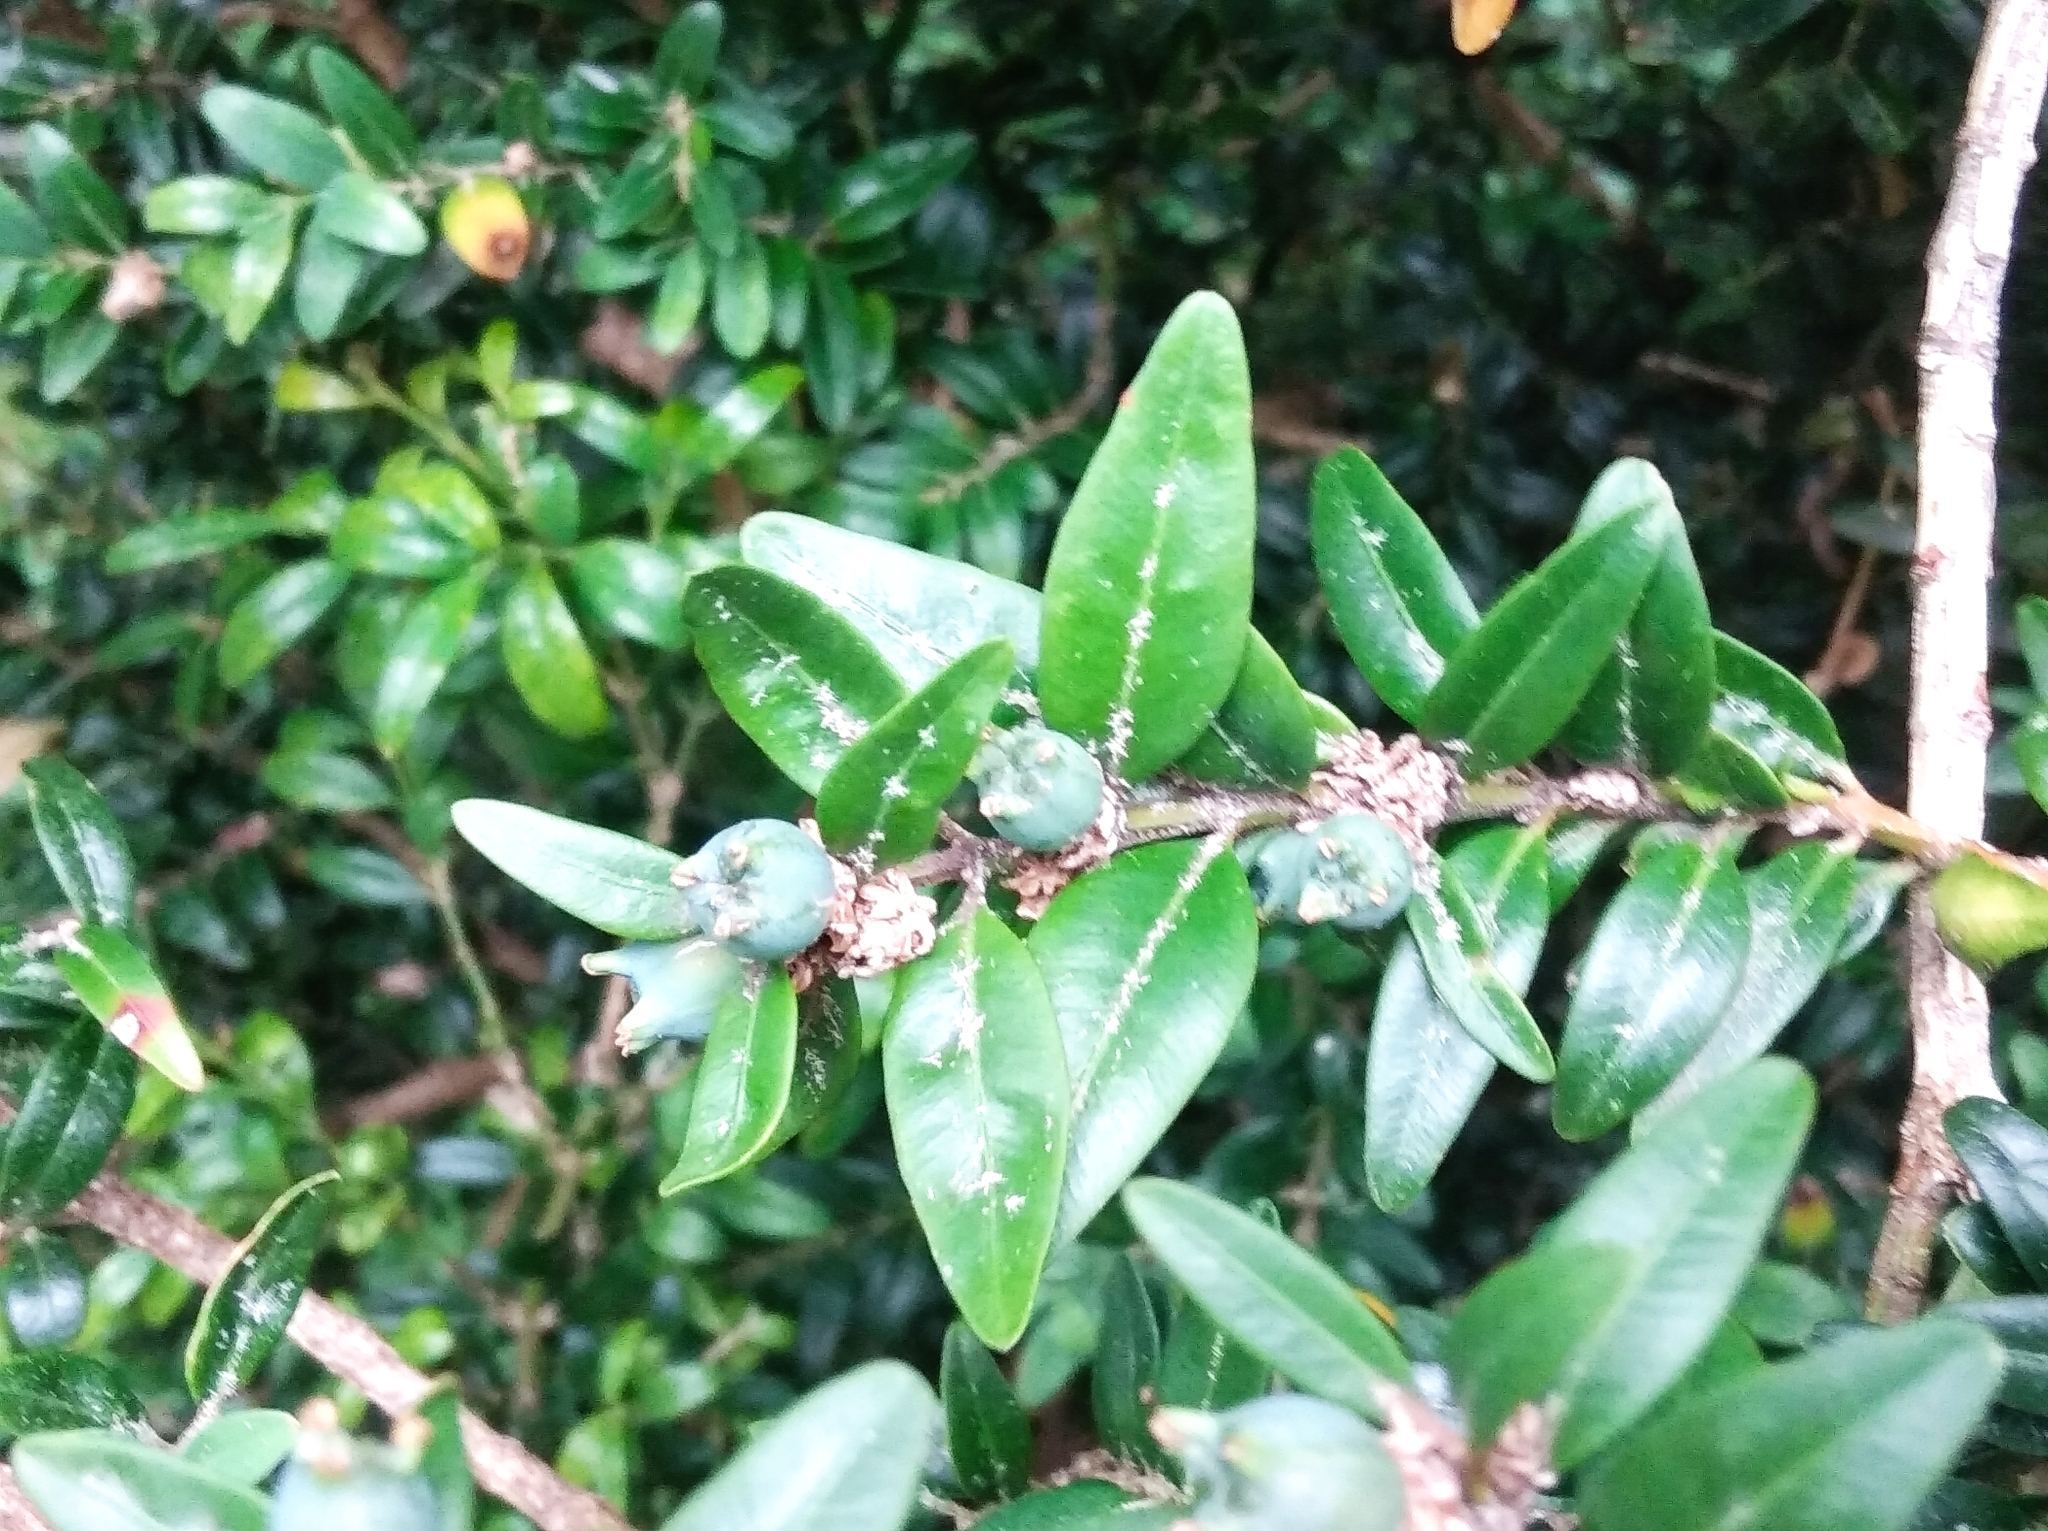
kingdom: Plantae
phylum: Tracheophyta
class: Magnoliopsida
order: Buxales
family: Buxaceae
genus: Buxus
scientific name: Buxus sempervirens
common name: Box
